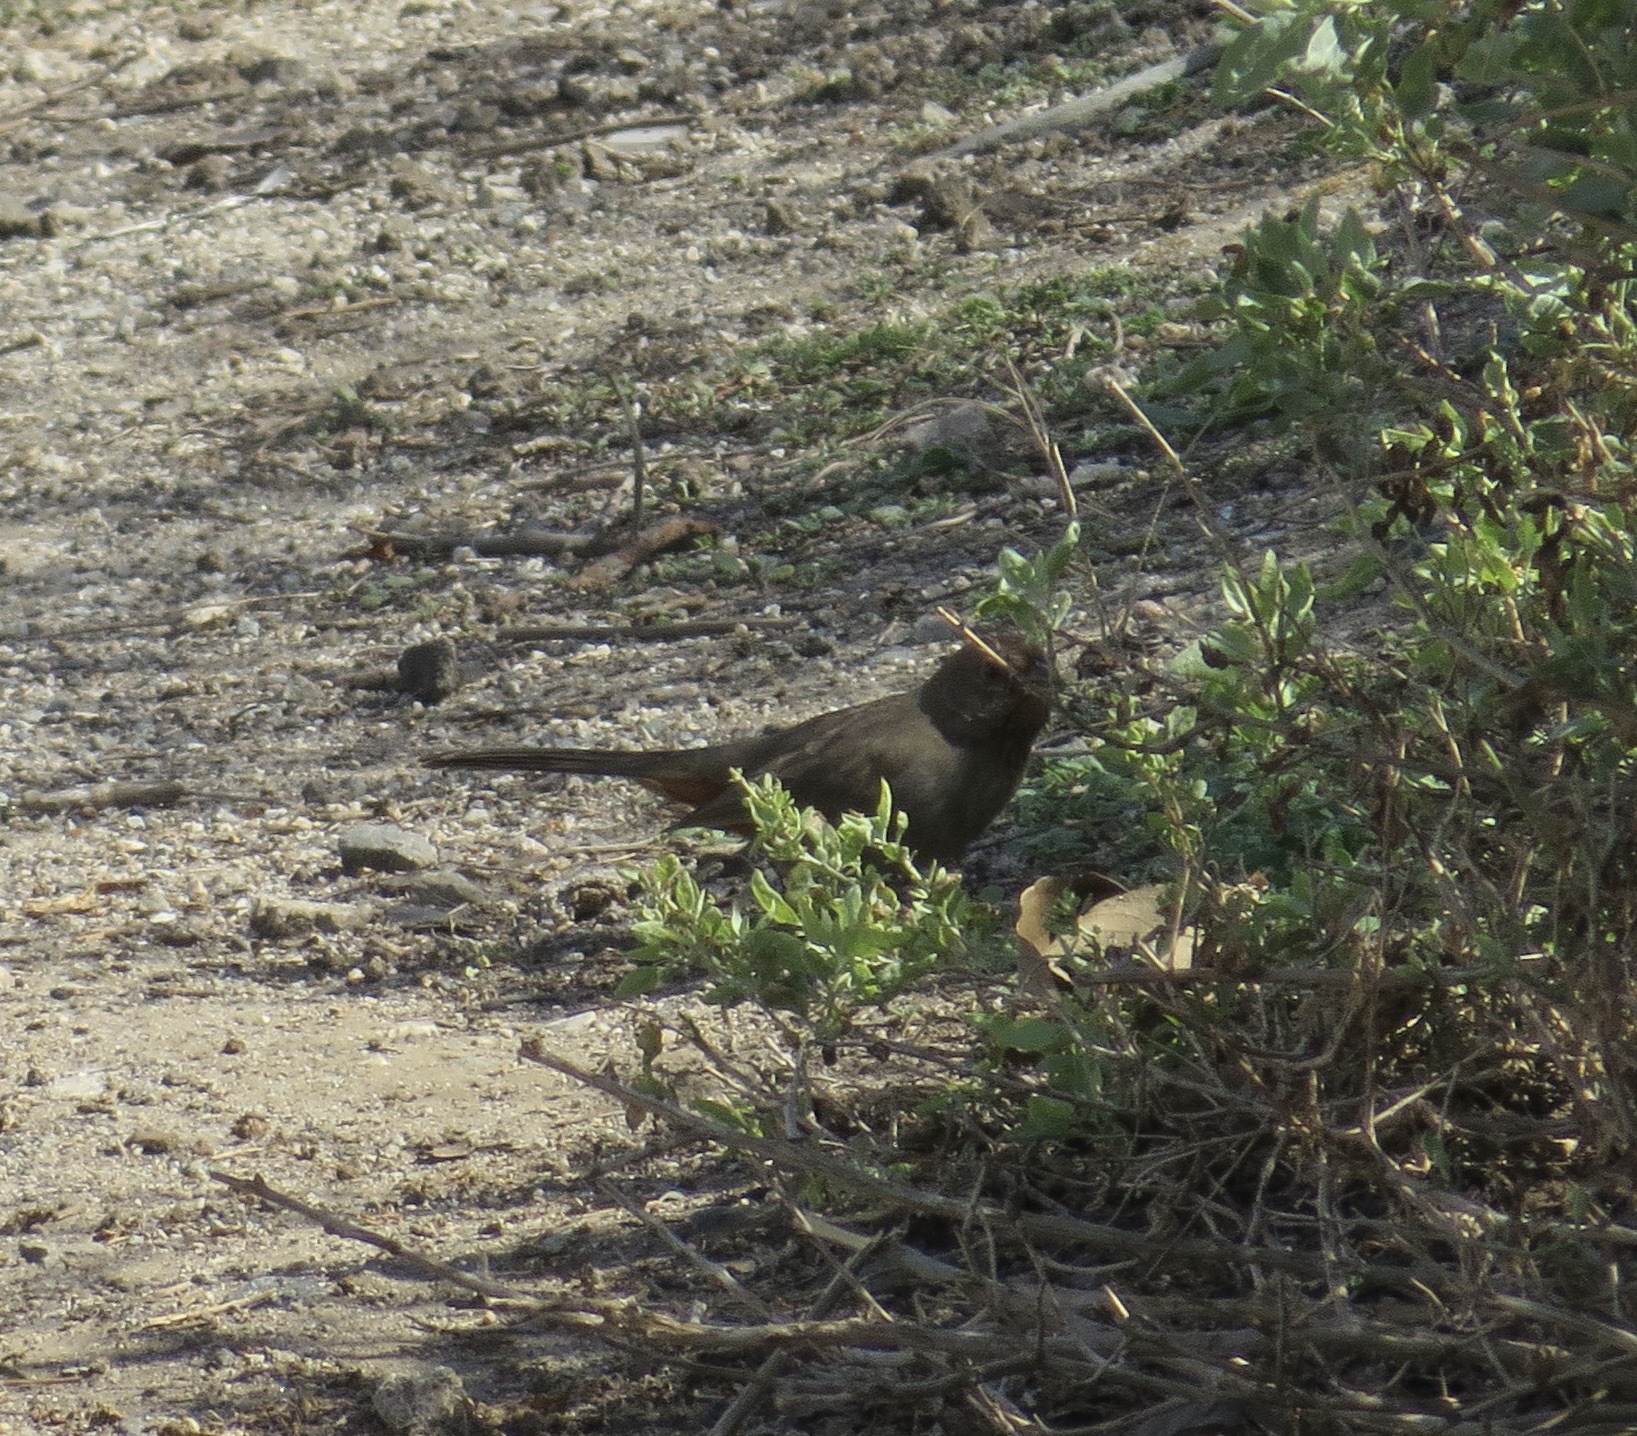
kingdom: Animalia
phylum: Chordata
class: Aves
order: Passeriformes
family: Passerellidae
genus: Melozone
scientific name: Melozone crissalis
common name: California towhee
